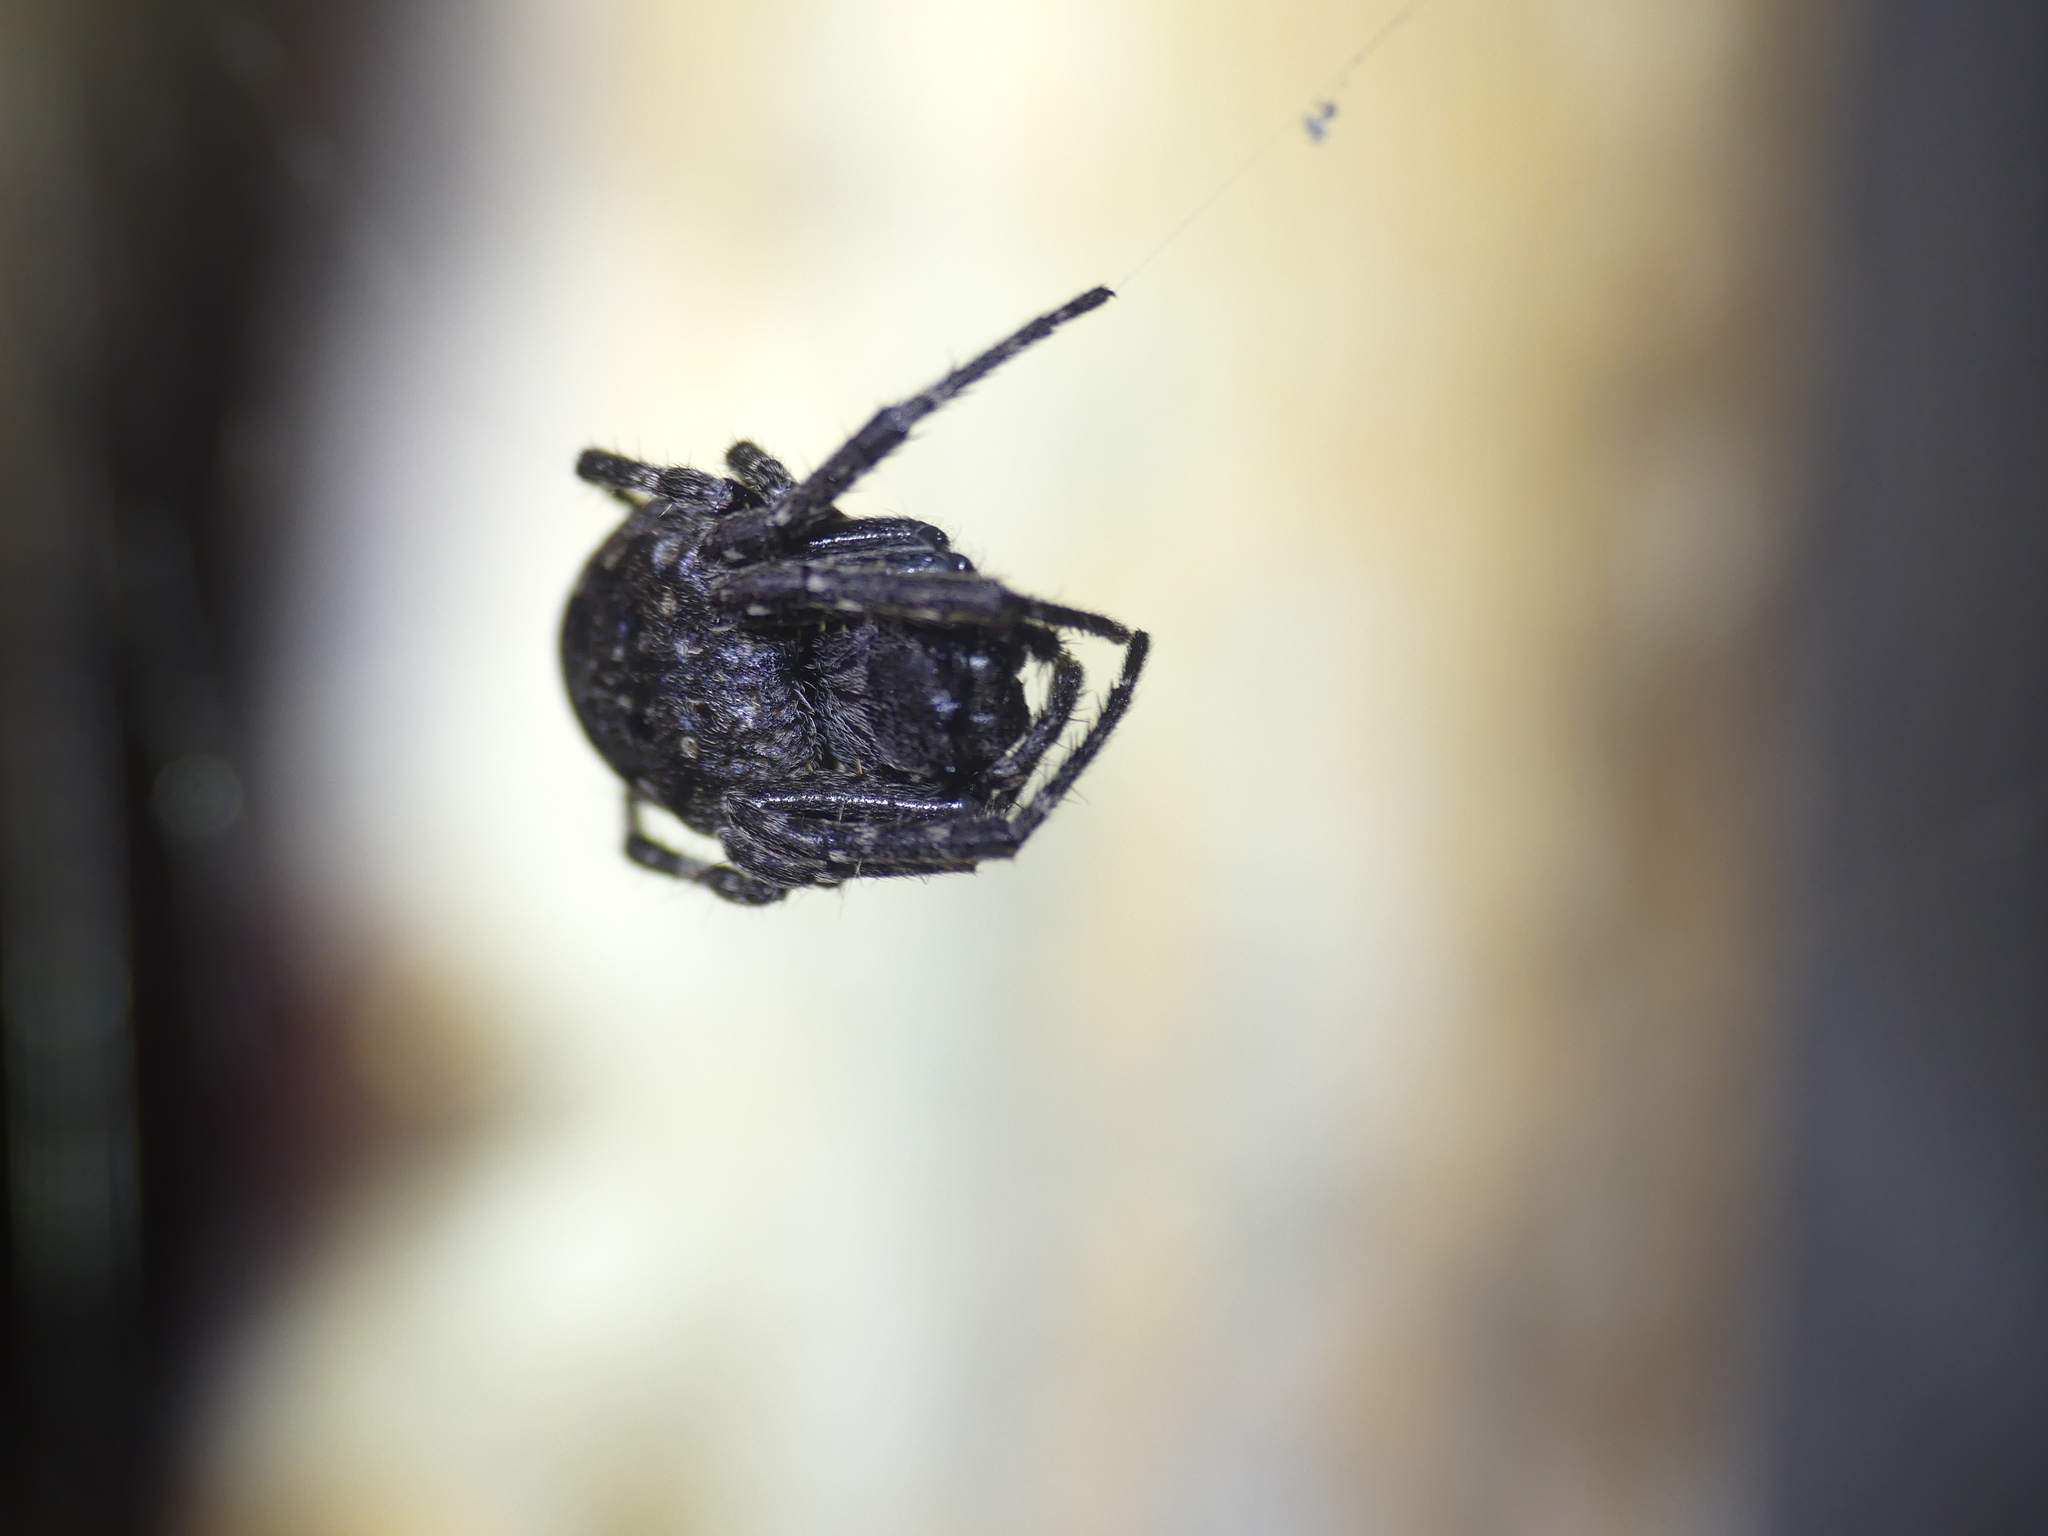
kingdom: Animalia
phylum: Arthropoda
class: Arachnida
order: Araneae
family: Araneidae
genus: Nuctenea
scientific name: Nuctenea umbratica
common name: Toad spider
